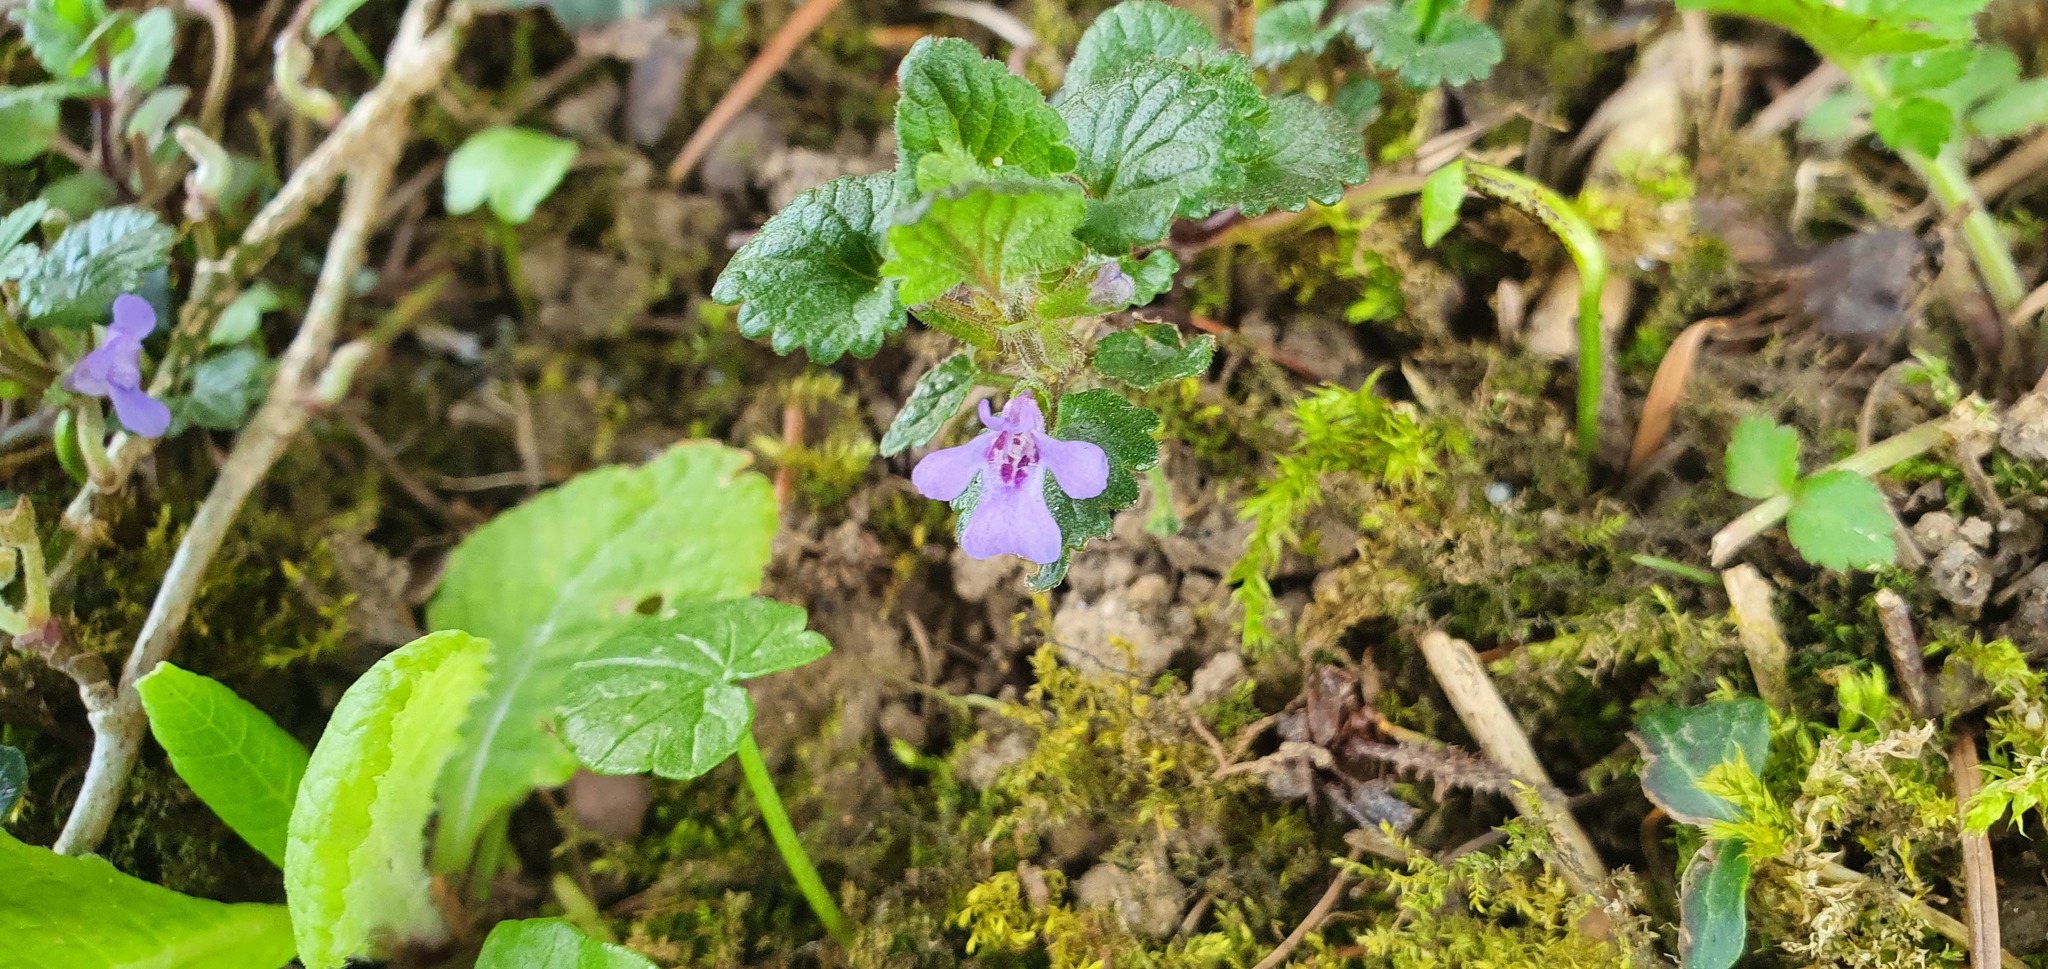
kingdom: Plantae
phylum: Tracheophyta
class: Magnoliopsida
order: Lamiales
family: Lamiaceae
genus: Glechoma
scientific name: Glechoma hederacea
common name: Ground ivy
